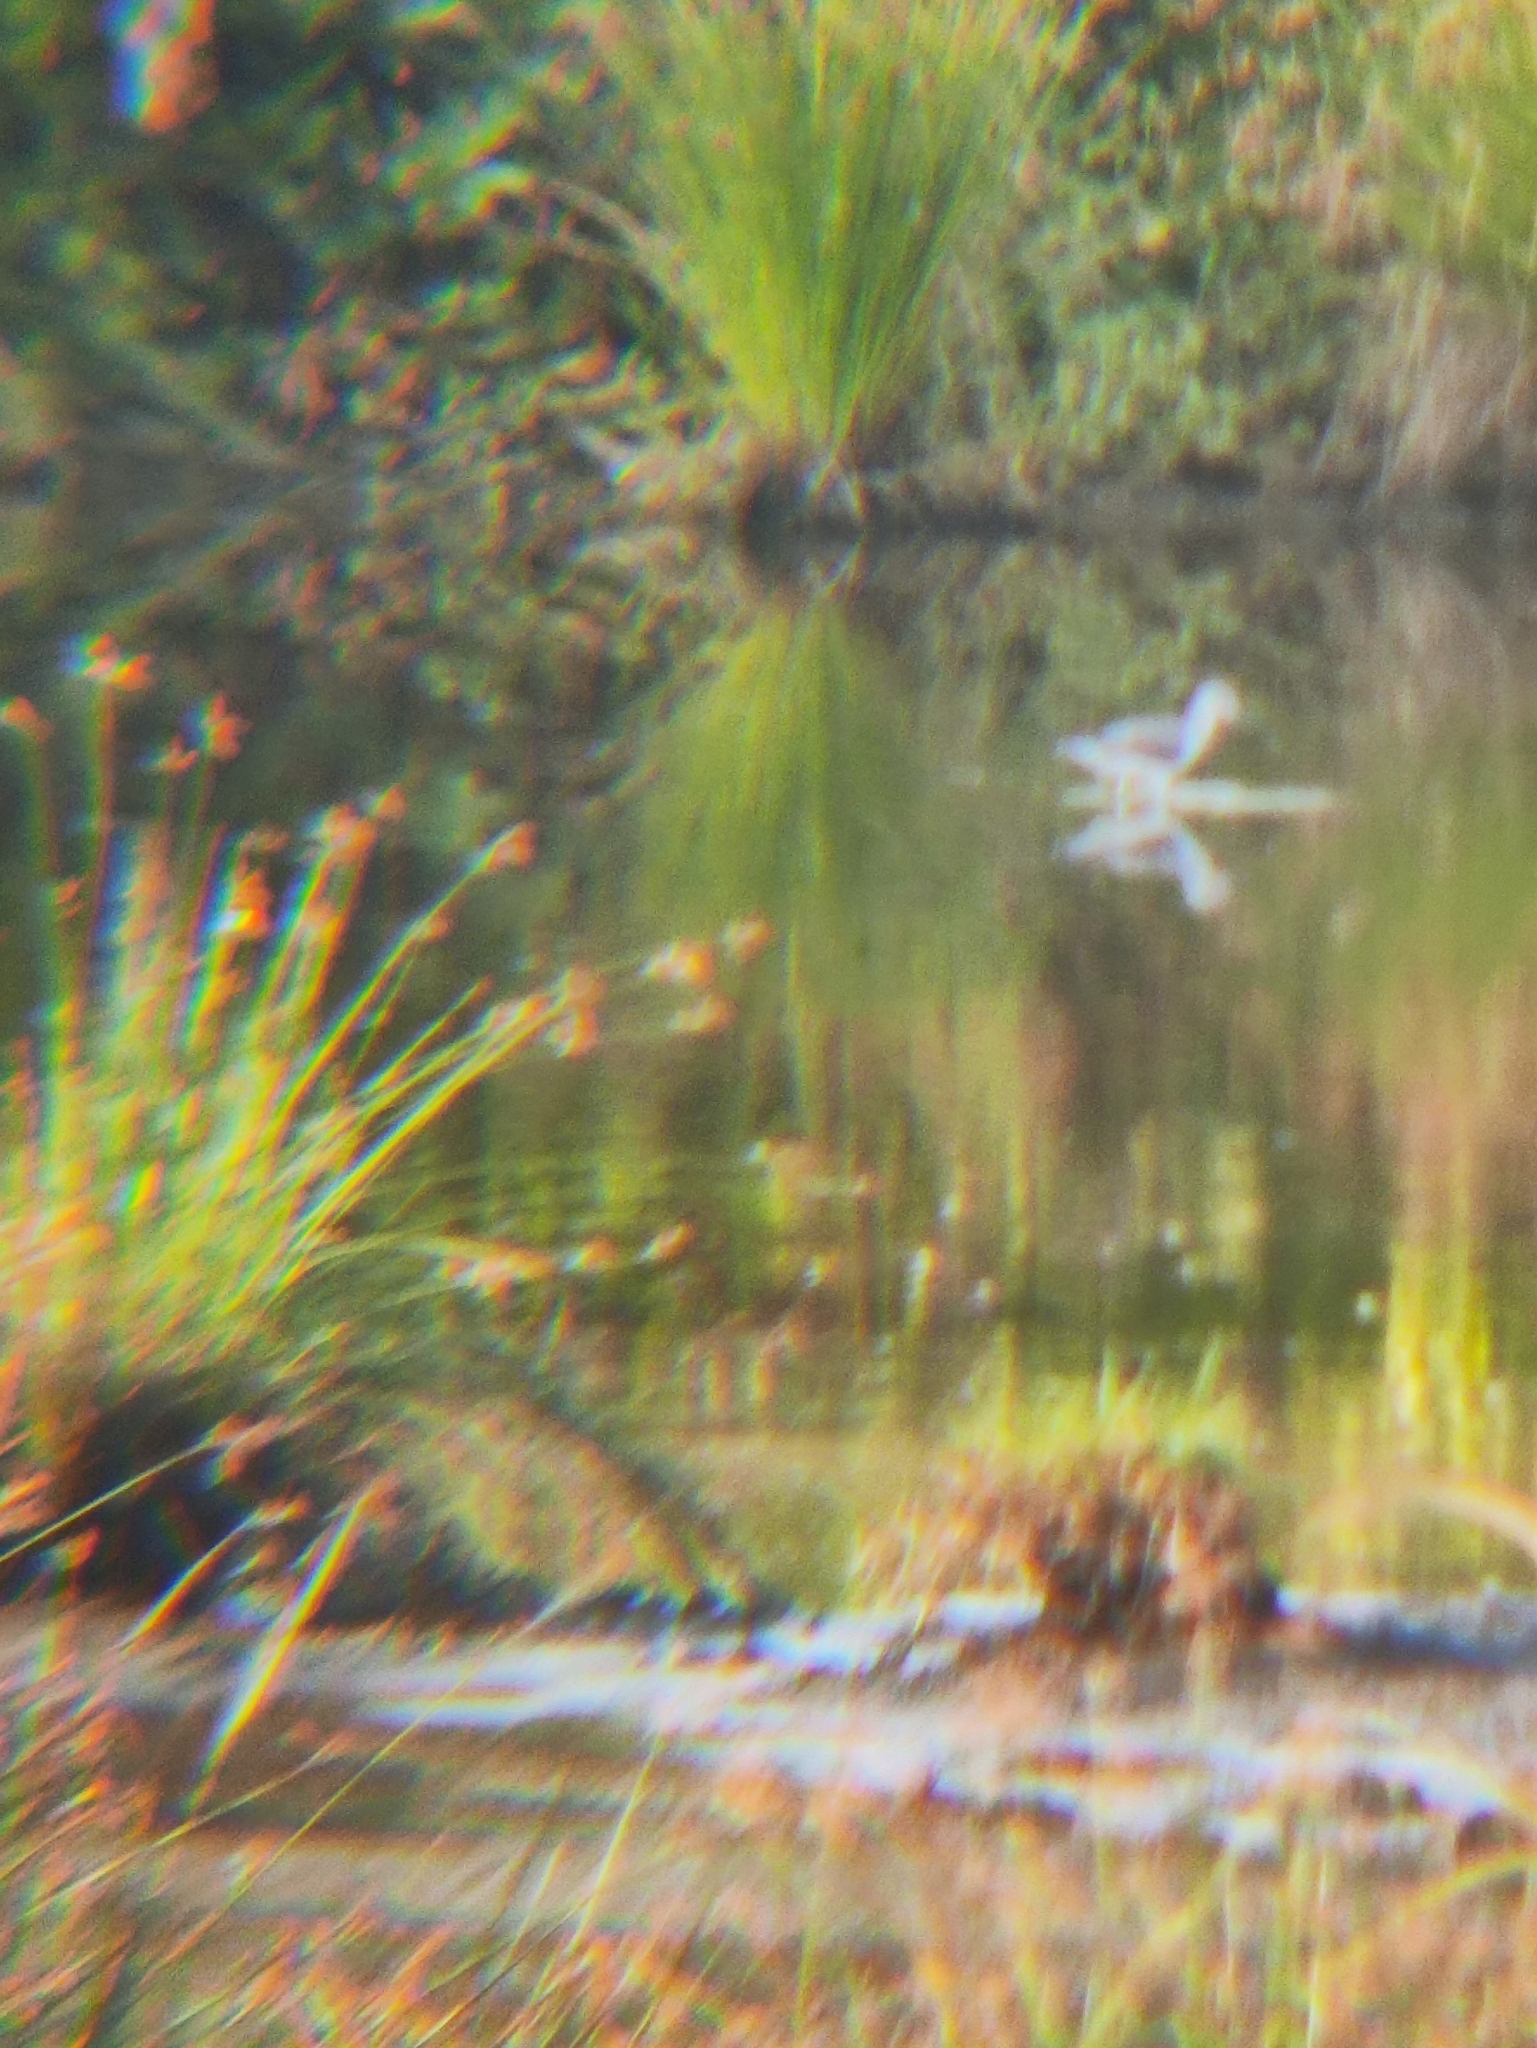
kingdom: Animalia
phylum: Chordata
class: Aves
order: Charadriiformes
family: Scolopacidae
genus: Tringa
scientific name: Tringa stagnatilis
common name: Marsh sandpiper
